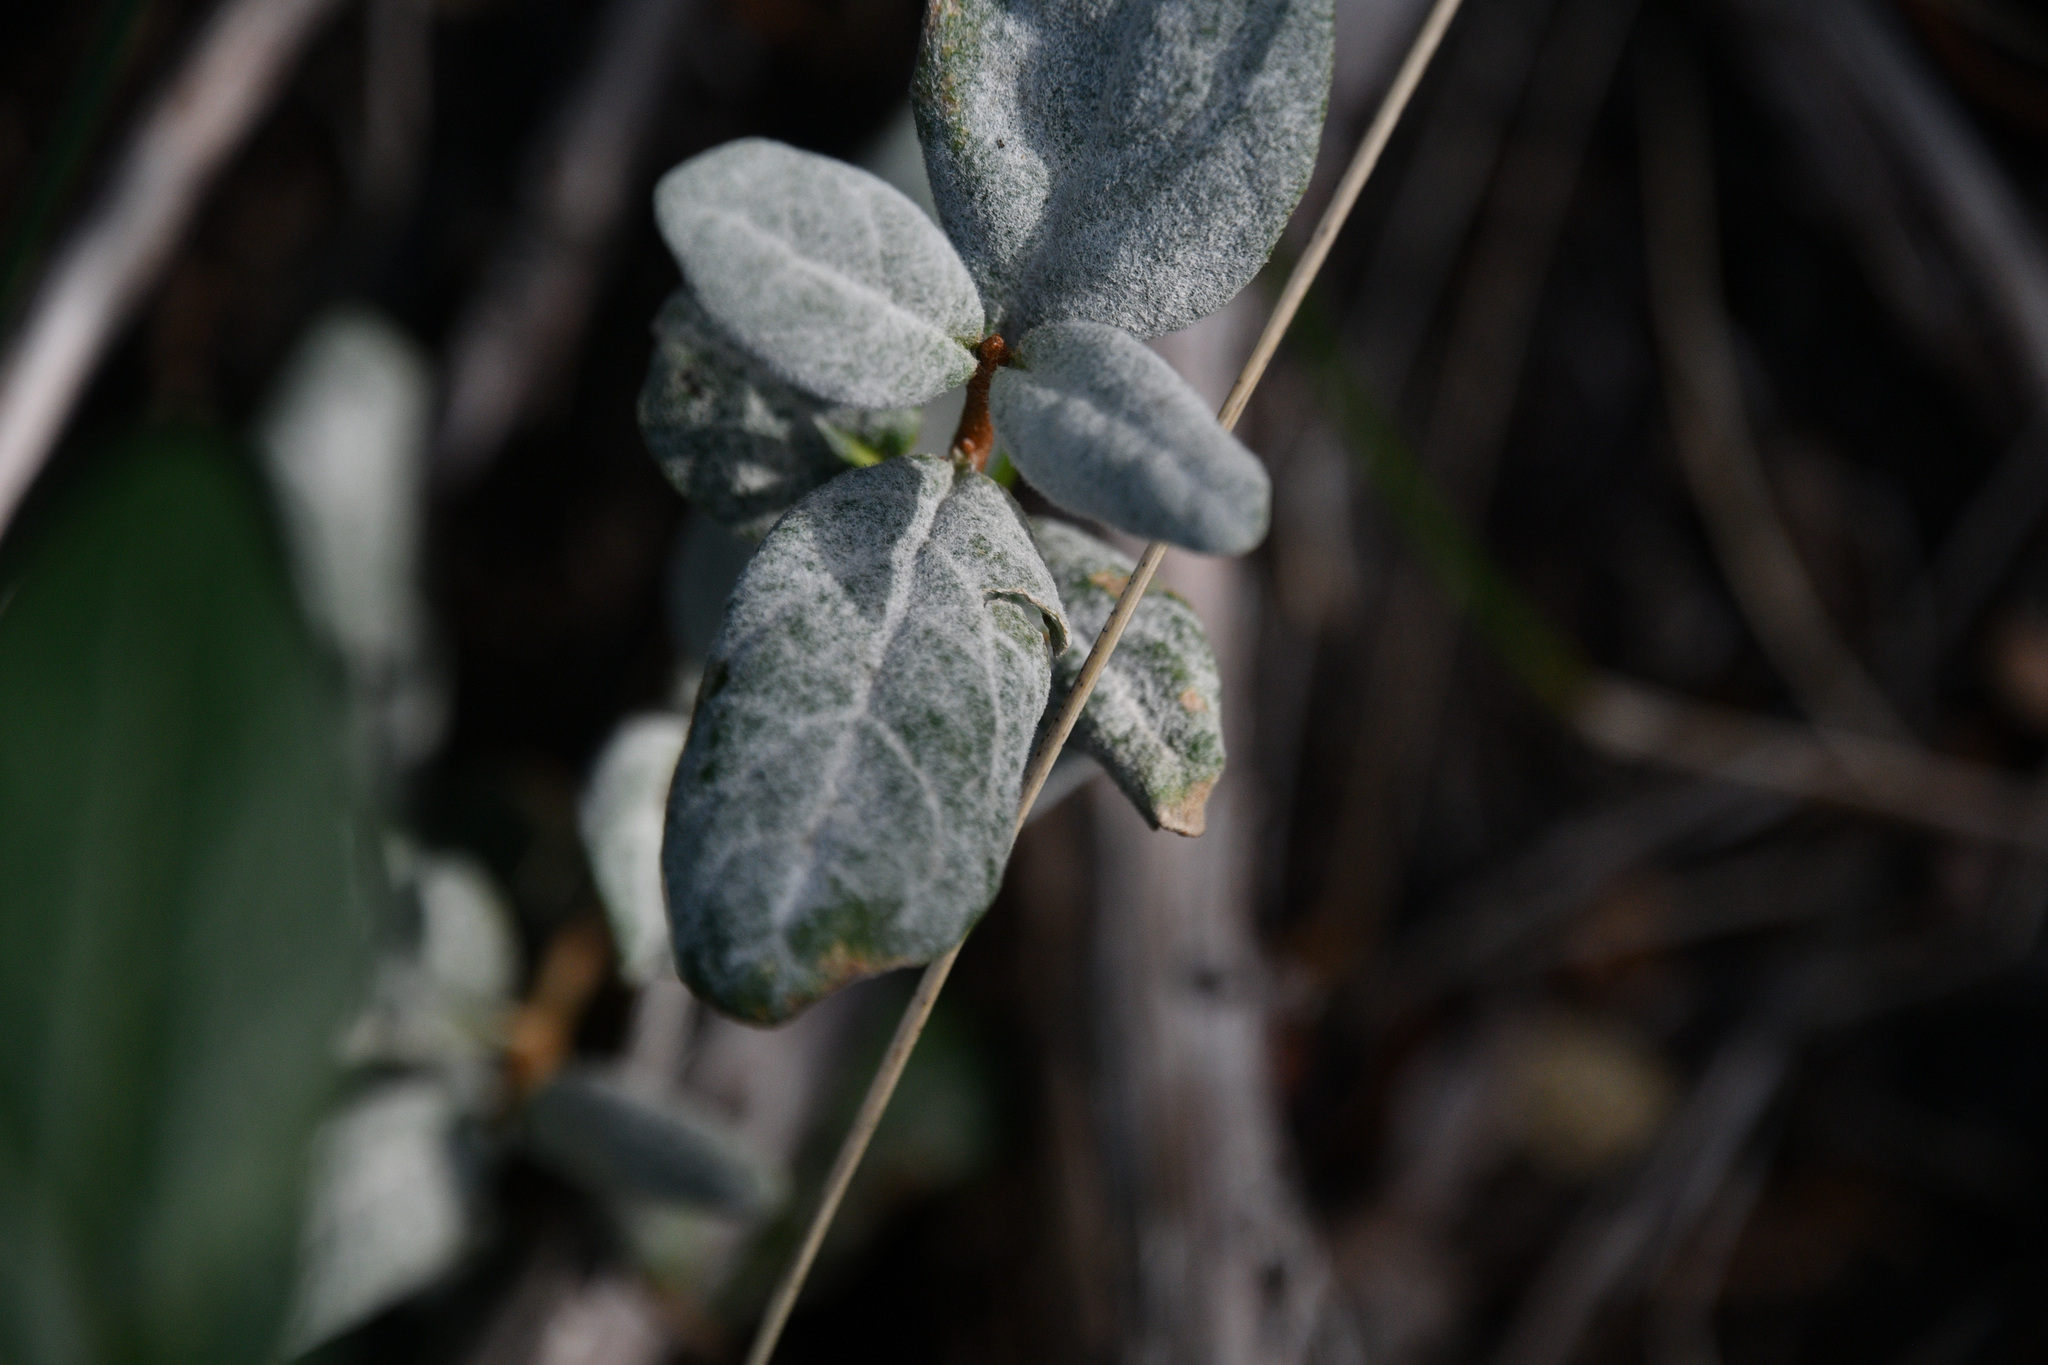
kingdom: Plantae
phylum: Tracheophyta
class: Magnoliopsida
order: Rosales
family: Elaeagnaceae
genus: Shepherdia
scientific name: Shepherdia canadensis
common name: Soapberry
